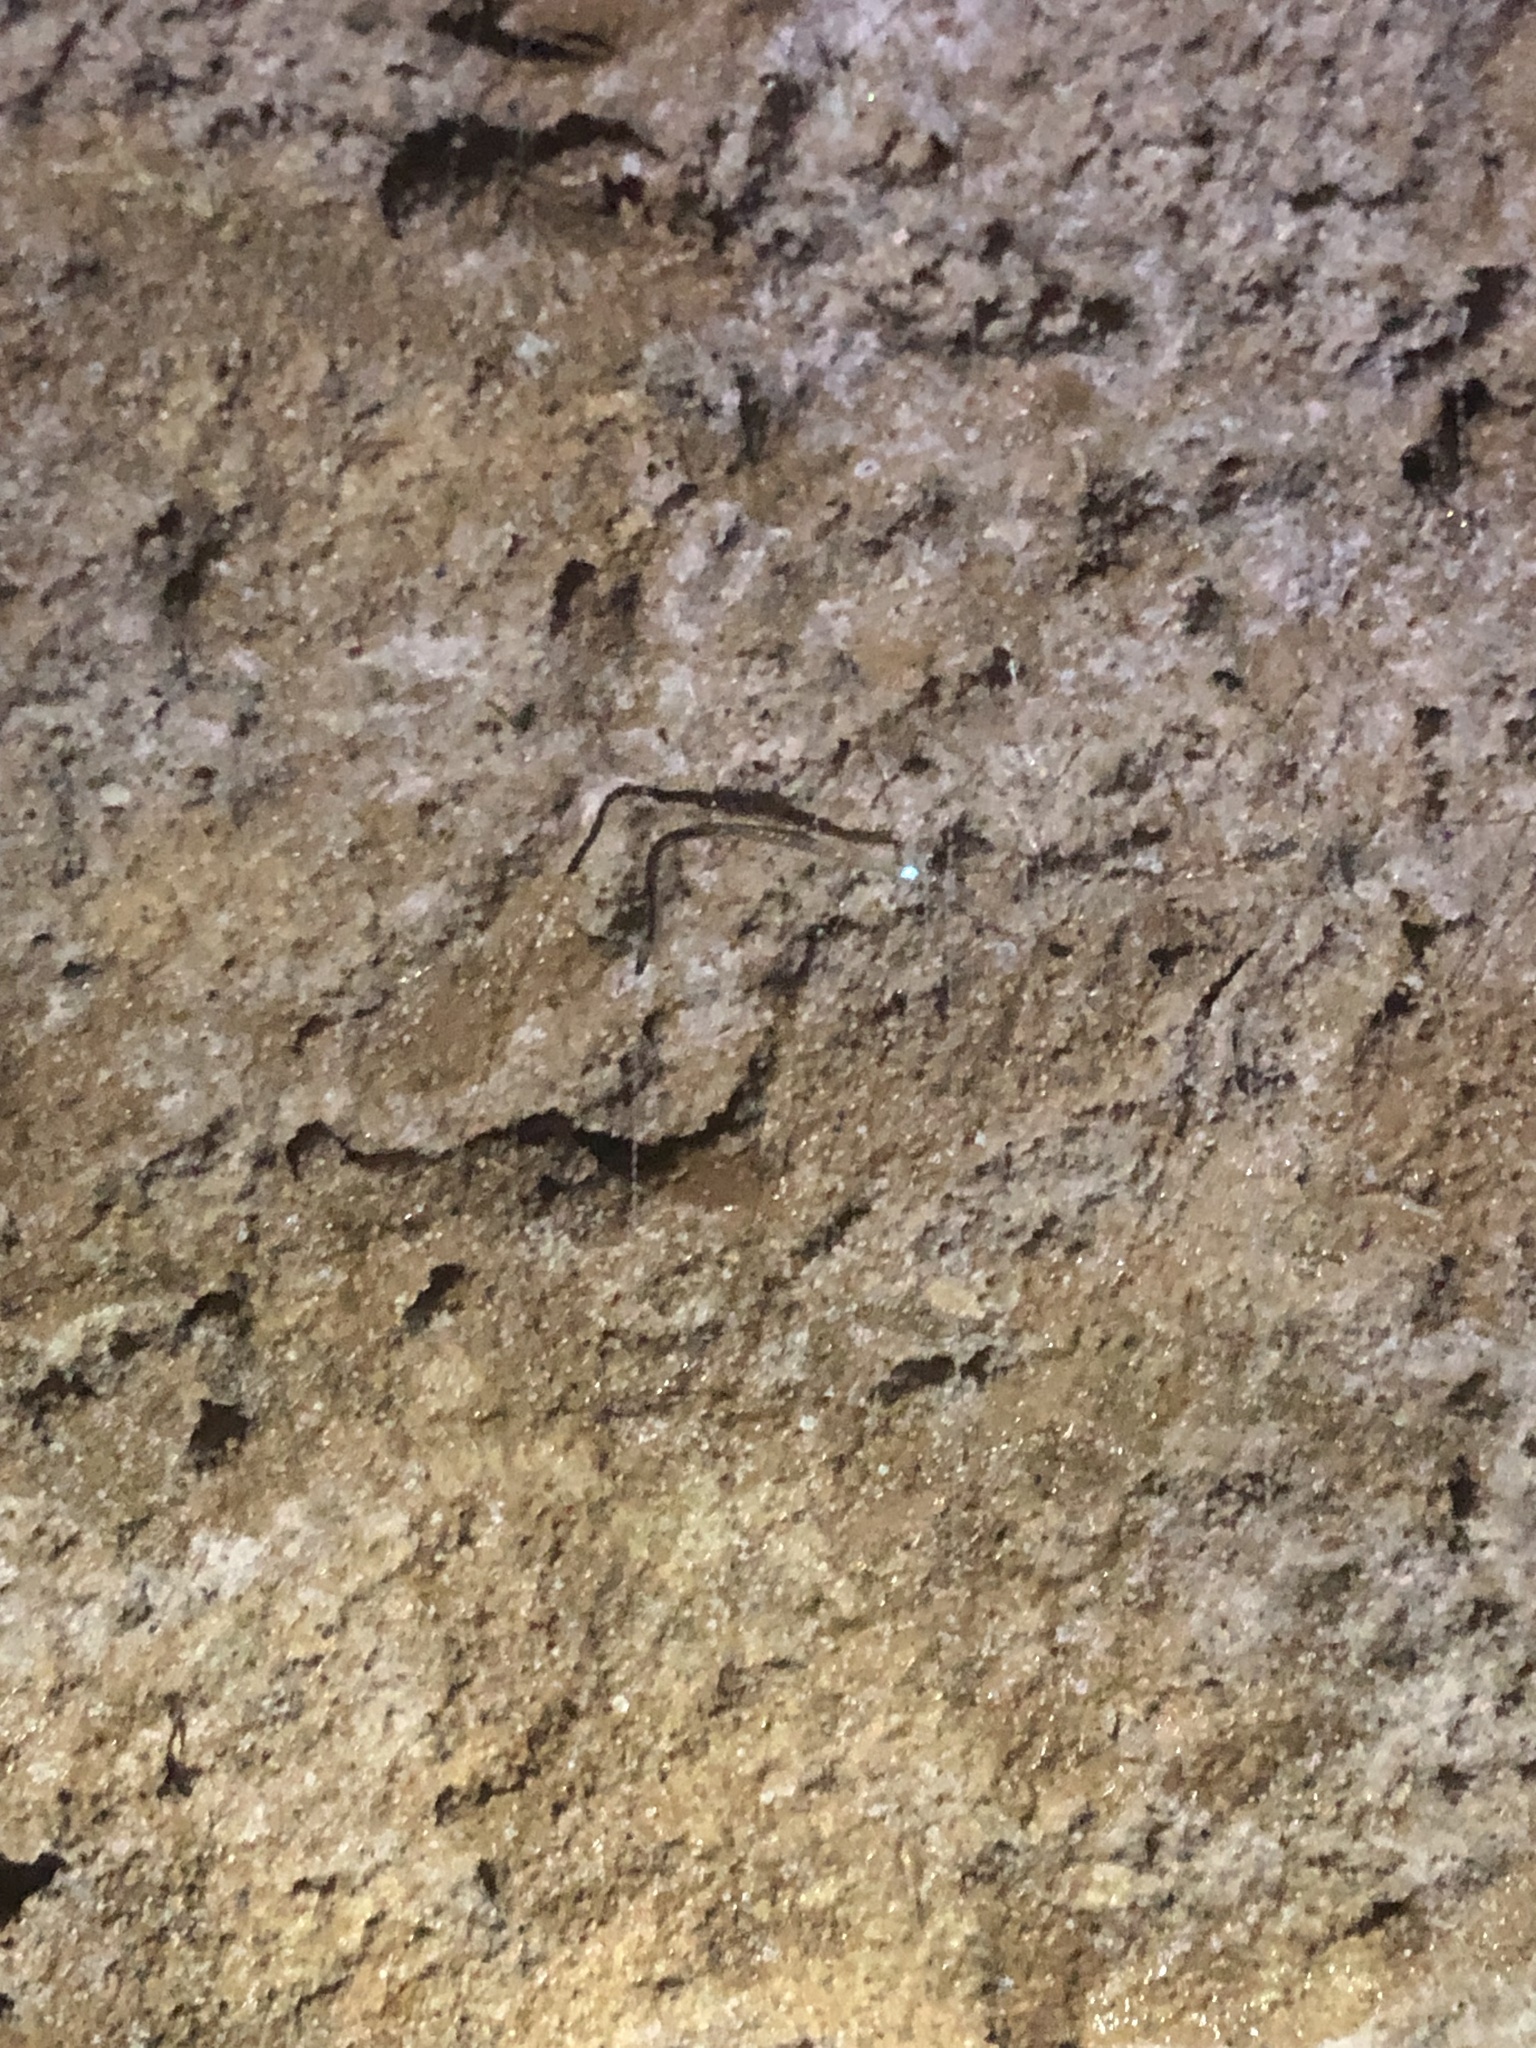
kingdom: Animalia
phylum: Arthropoda
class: Insecta
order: Diptera
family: Keroplatidae
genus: Arachnocampa
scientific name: Arachnocampa luminosa
